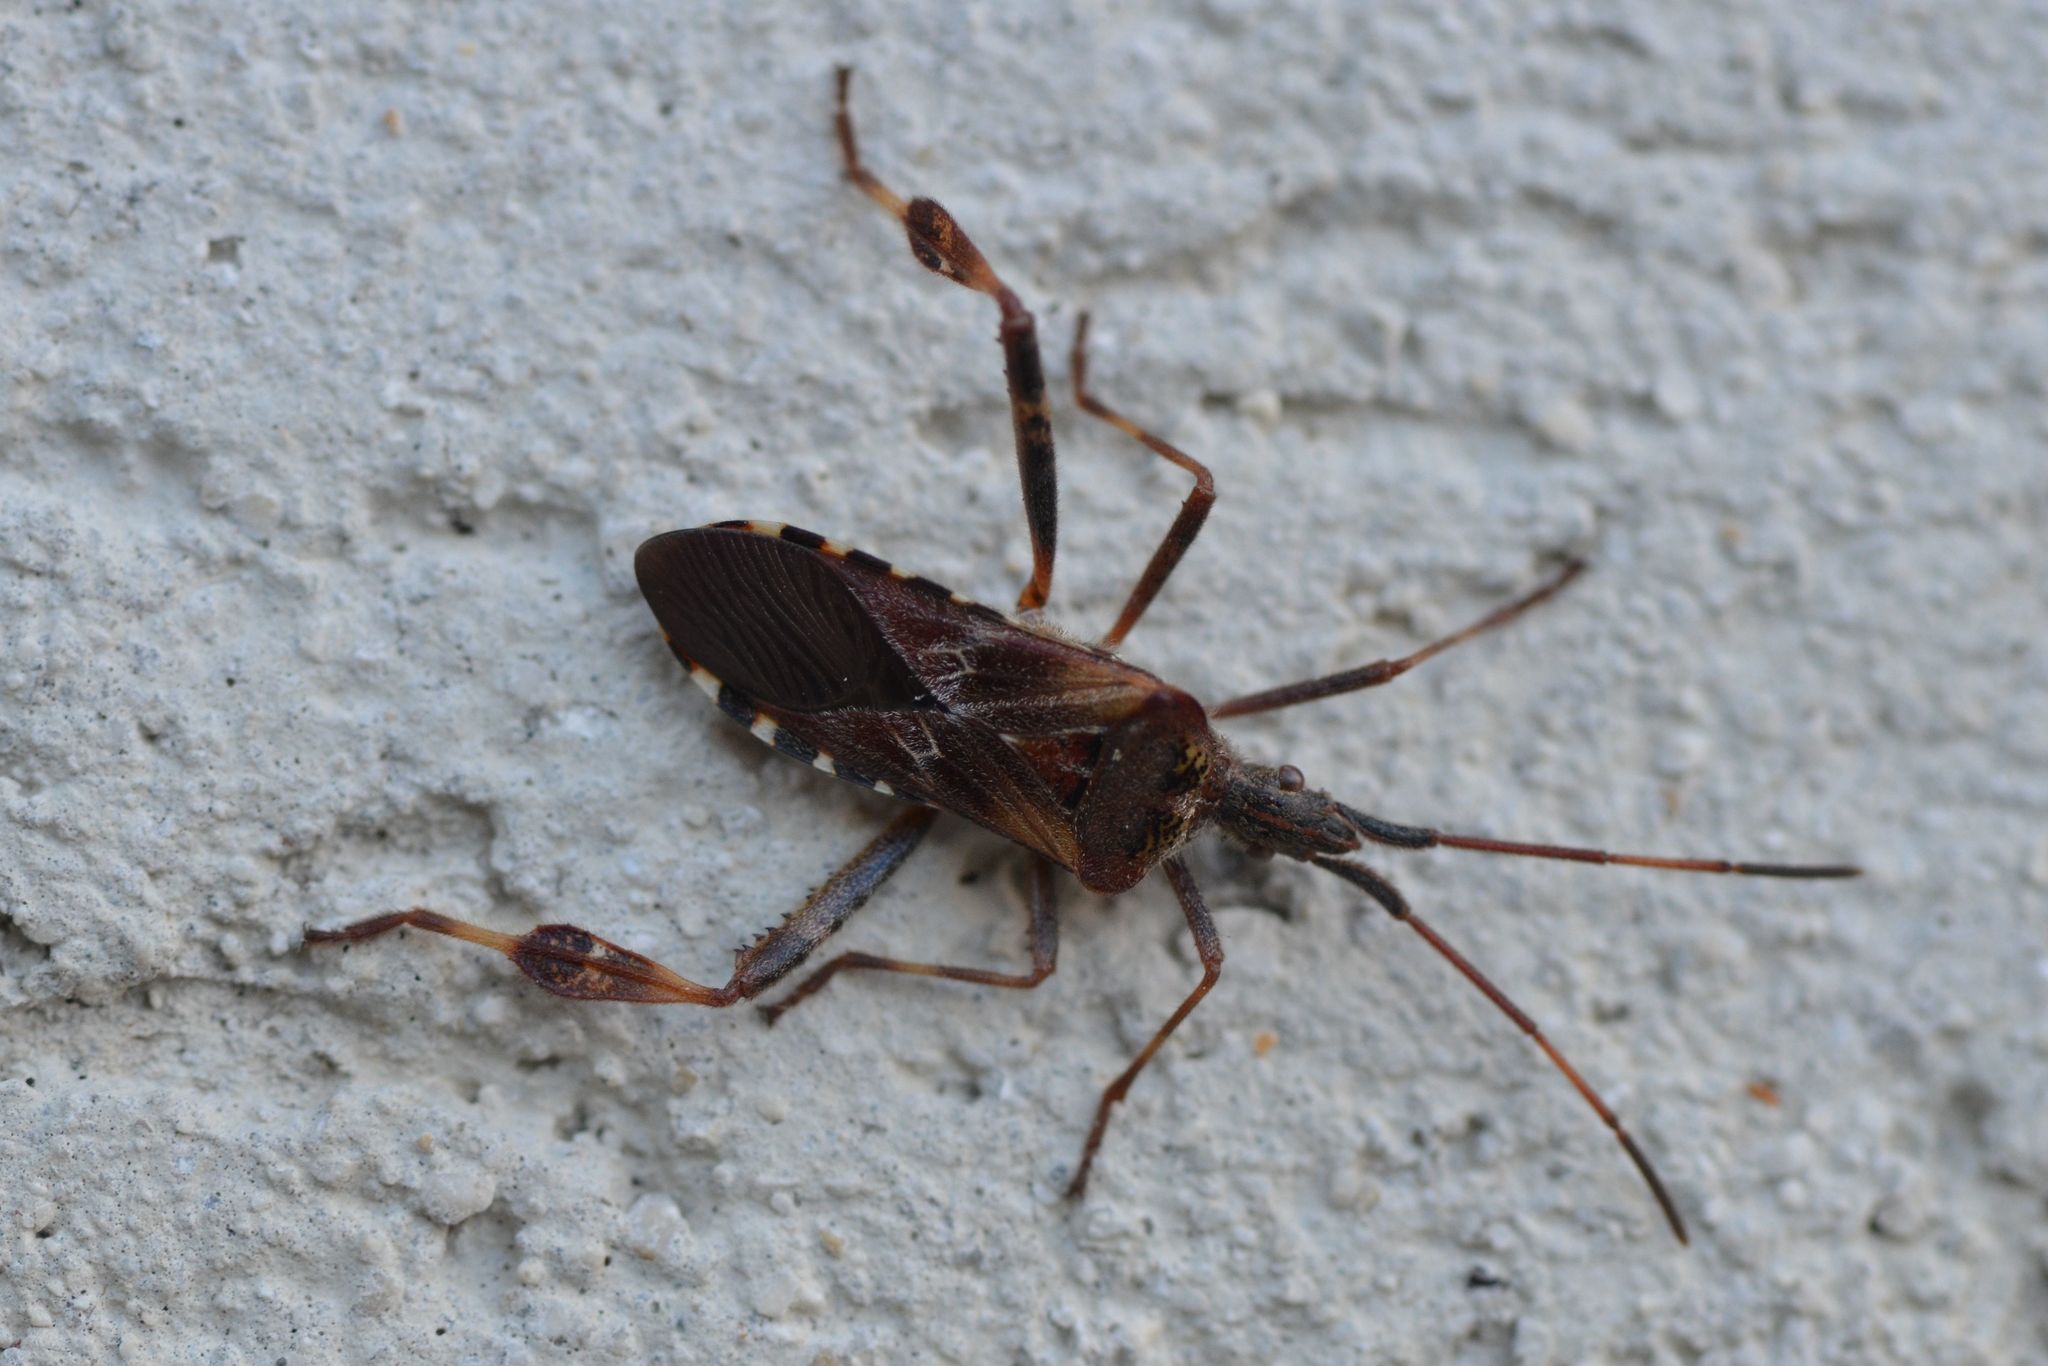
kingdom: Animalia
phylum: Arthropoda
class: Insecta
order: Hemiptera
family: Coreidae
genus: Leptoglossus
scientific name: Leptoglossus occidentalis
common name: Western conifer-seed bug
